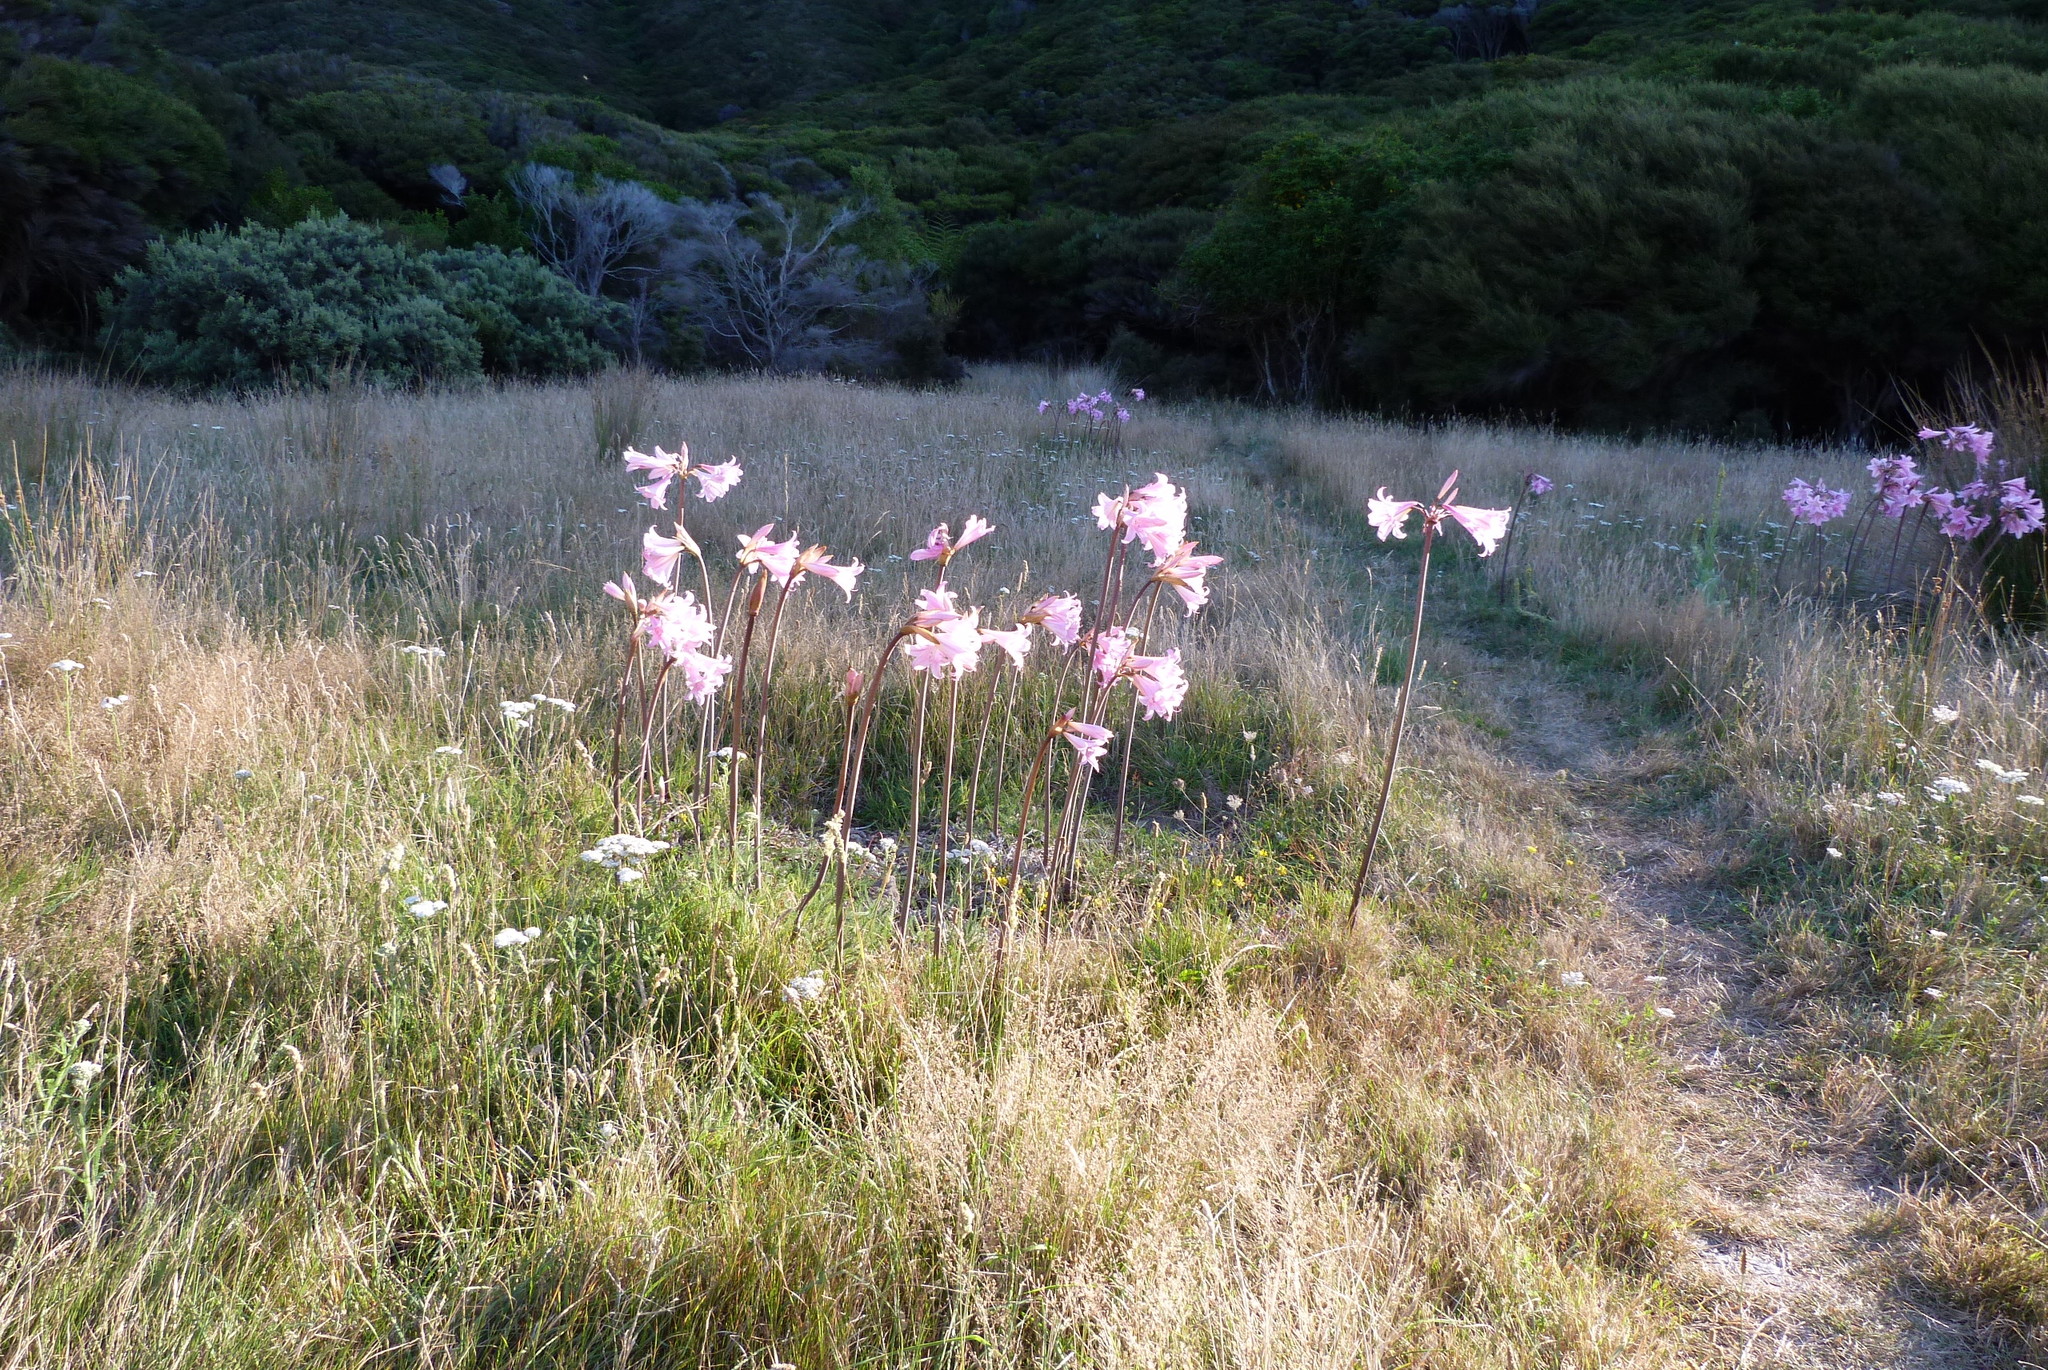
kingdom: Plantae
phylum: Tracheophyta
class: Liliopsida
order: Asparagales
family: Amaryllidaceae
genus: Amaryllis
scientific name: Amaryllis belladonna
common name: Jersey lily
